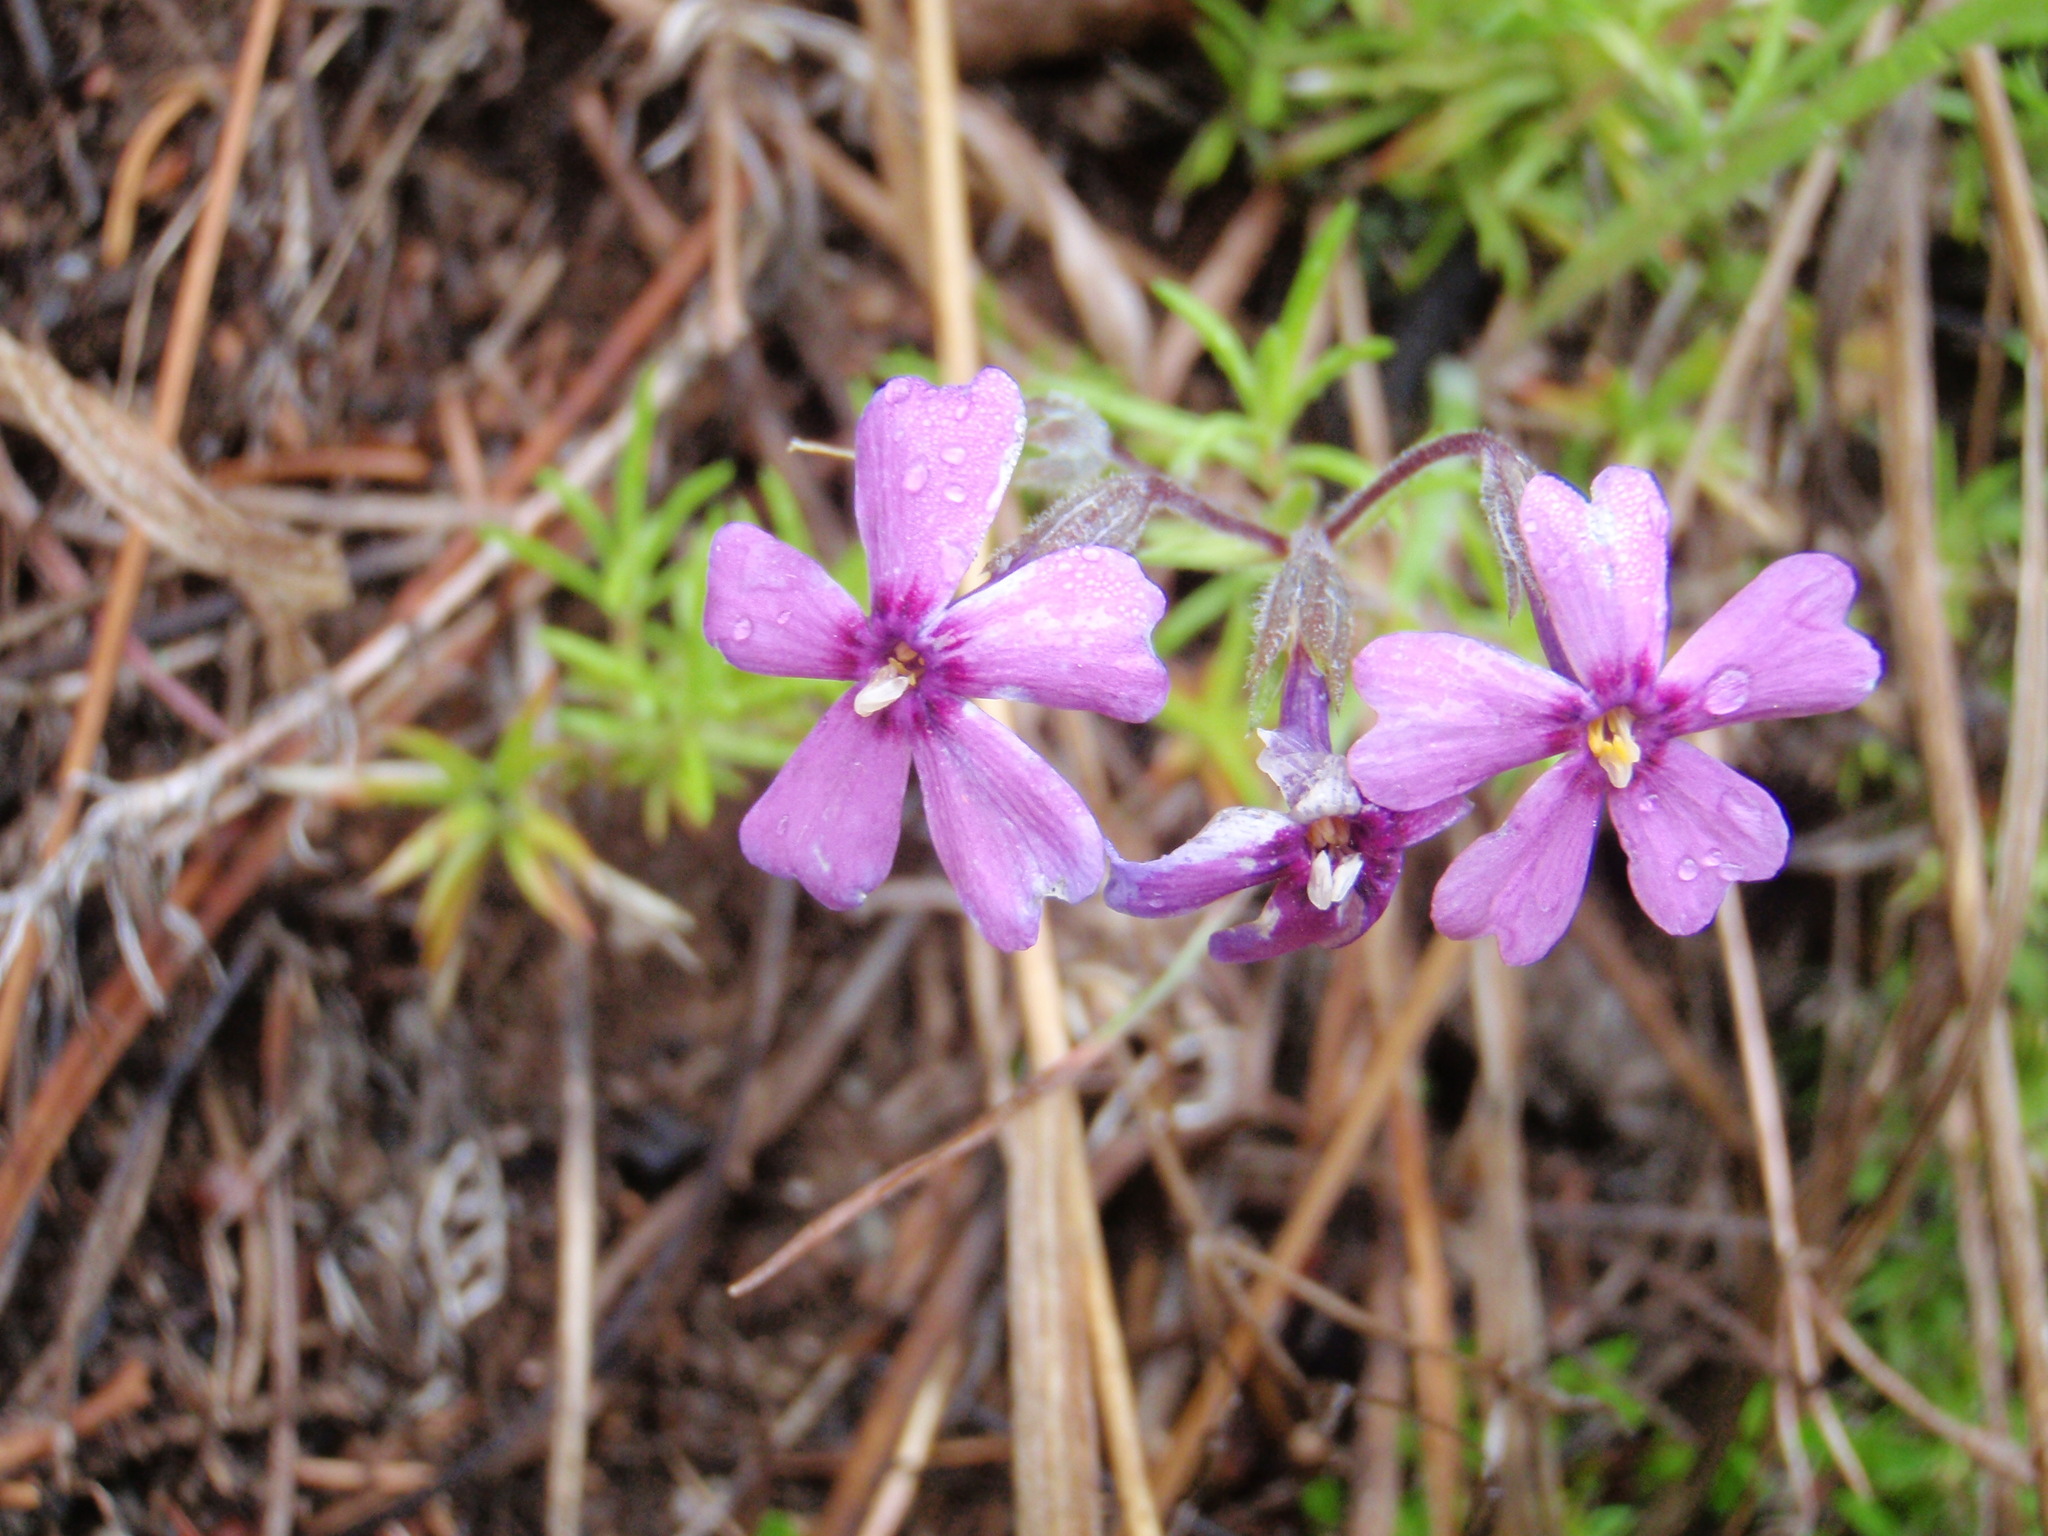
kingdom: Plantae
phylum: Tracheophyta
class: Magnoliopsida
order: Ericales
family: Polemoniaceae
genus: Phlox
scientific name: Phlox subulata
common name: Moss phlox
